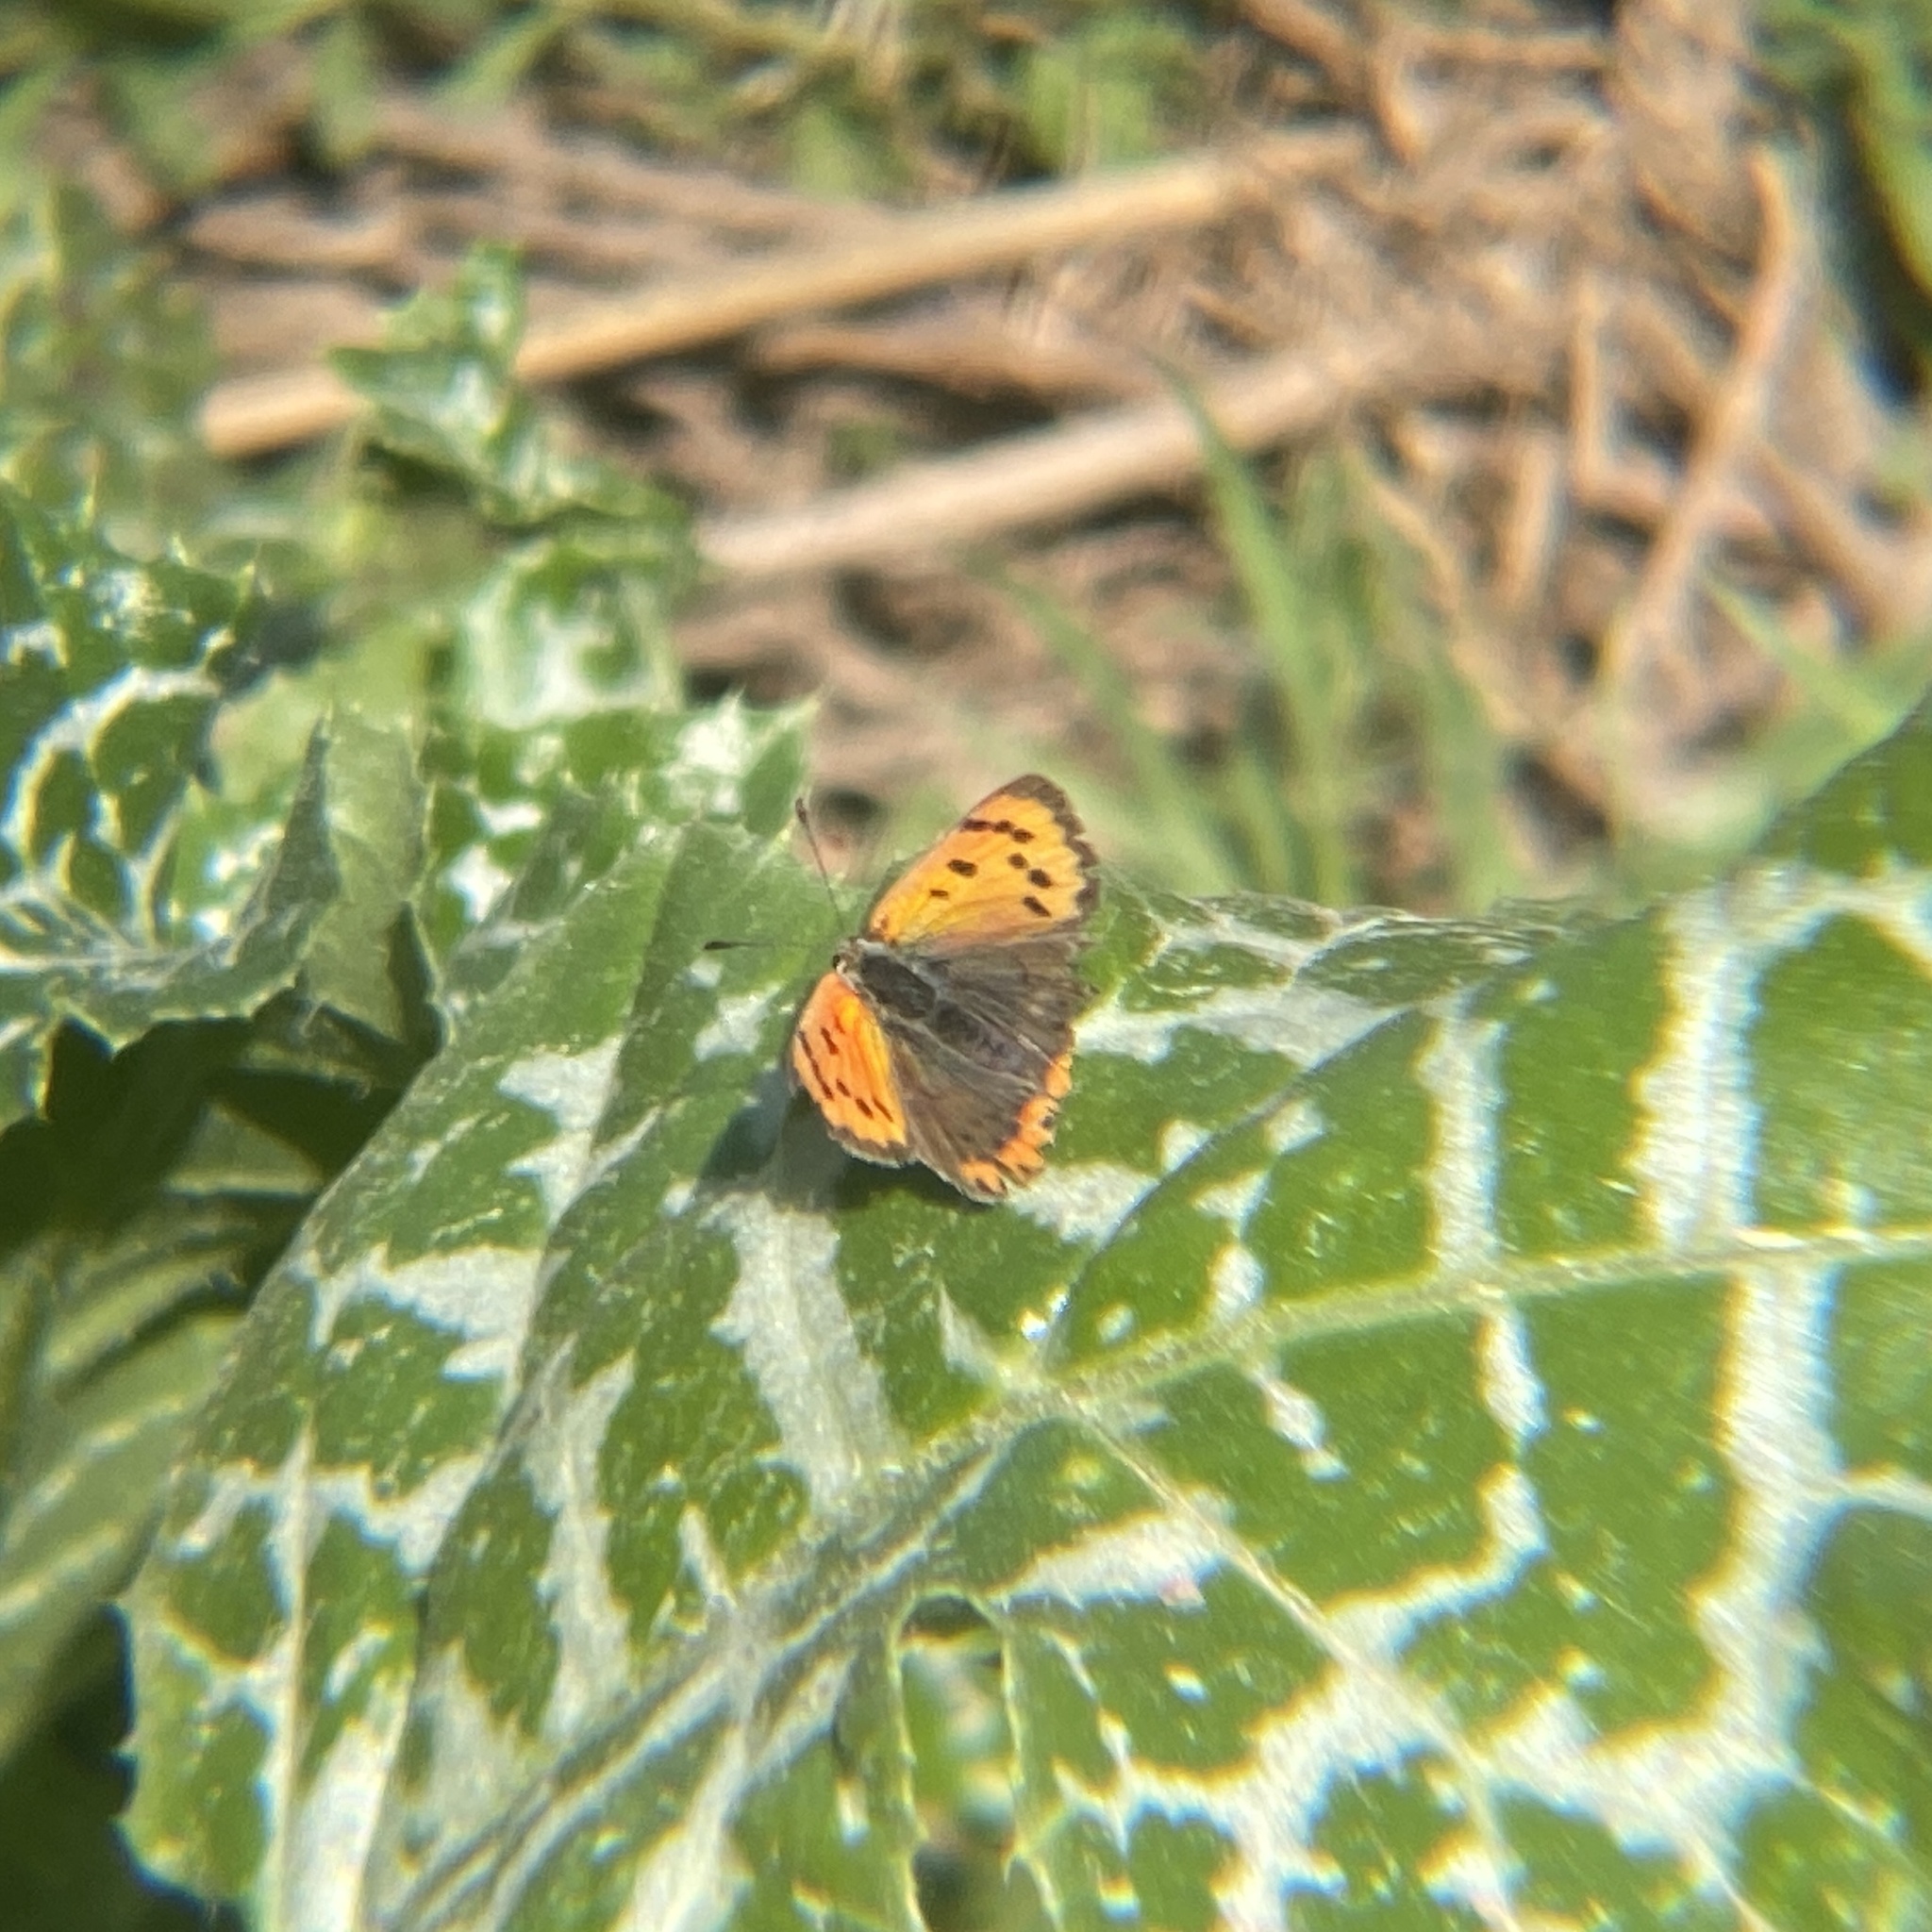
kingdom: Animalia
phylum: Arthropoda
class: Insecta
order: Lepidoptera
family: Lycaenidae
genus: Lycaena
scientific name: Lycaena phlaeas
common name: Small copper
